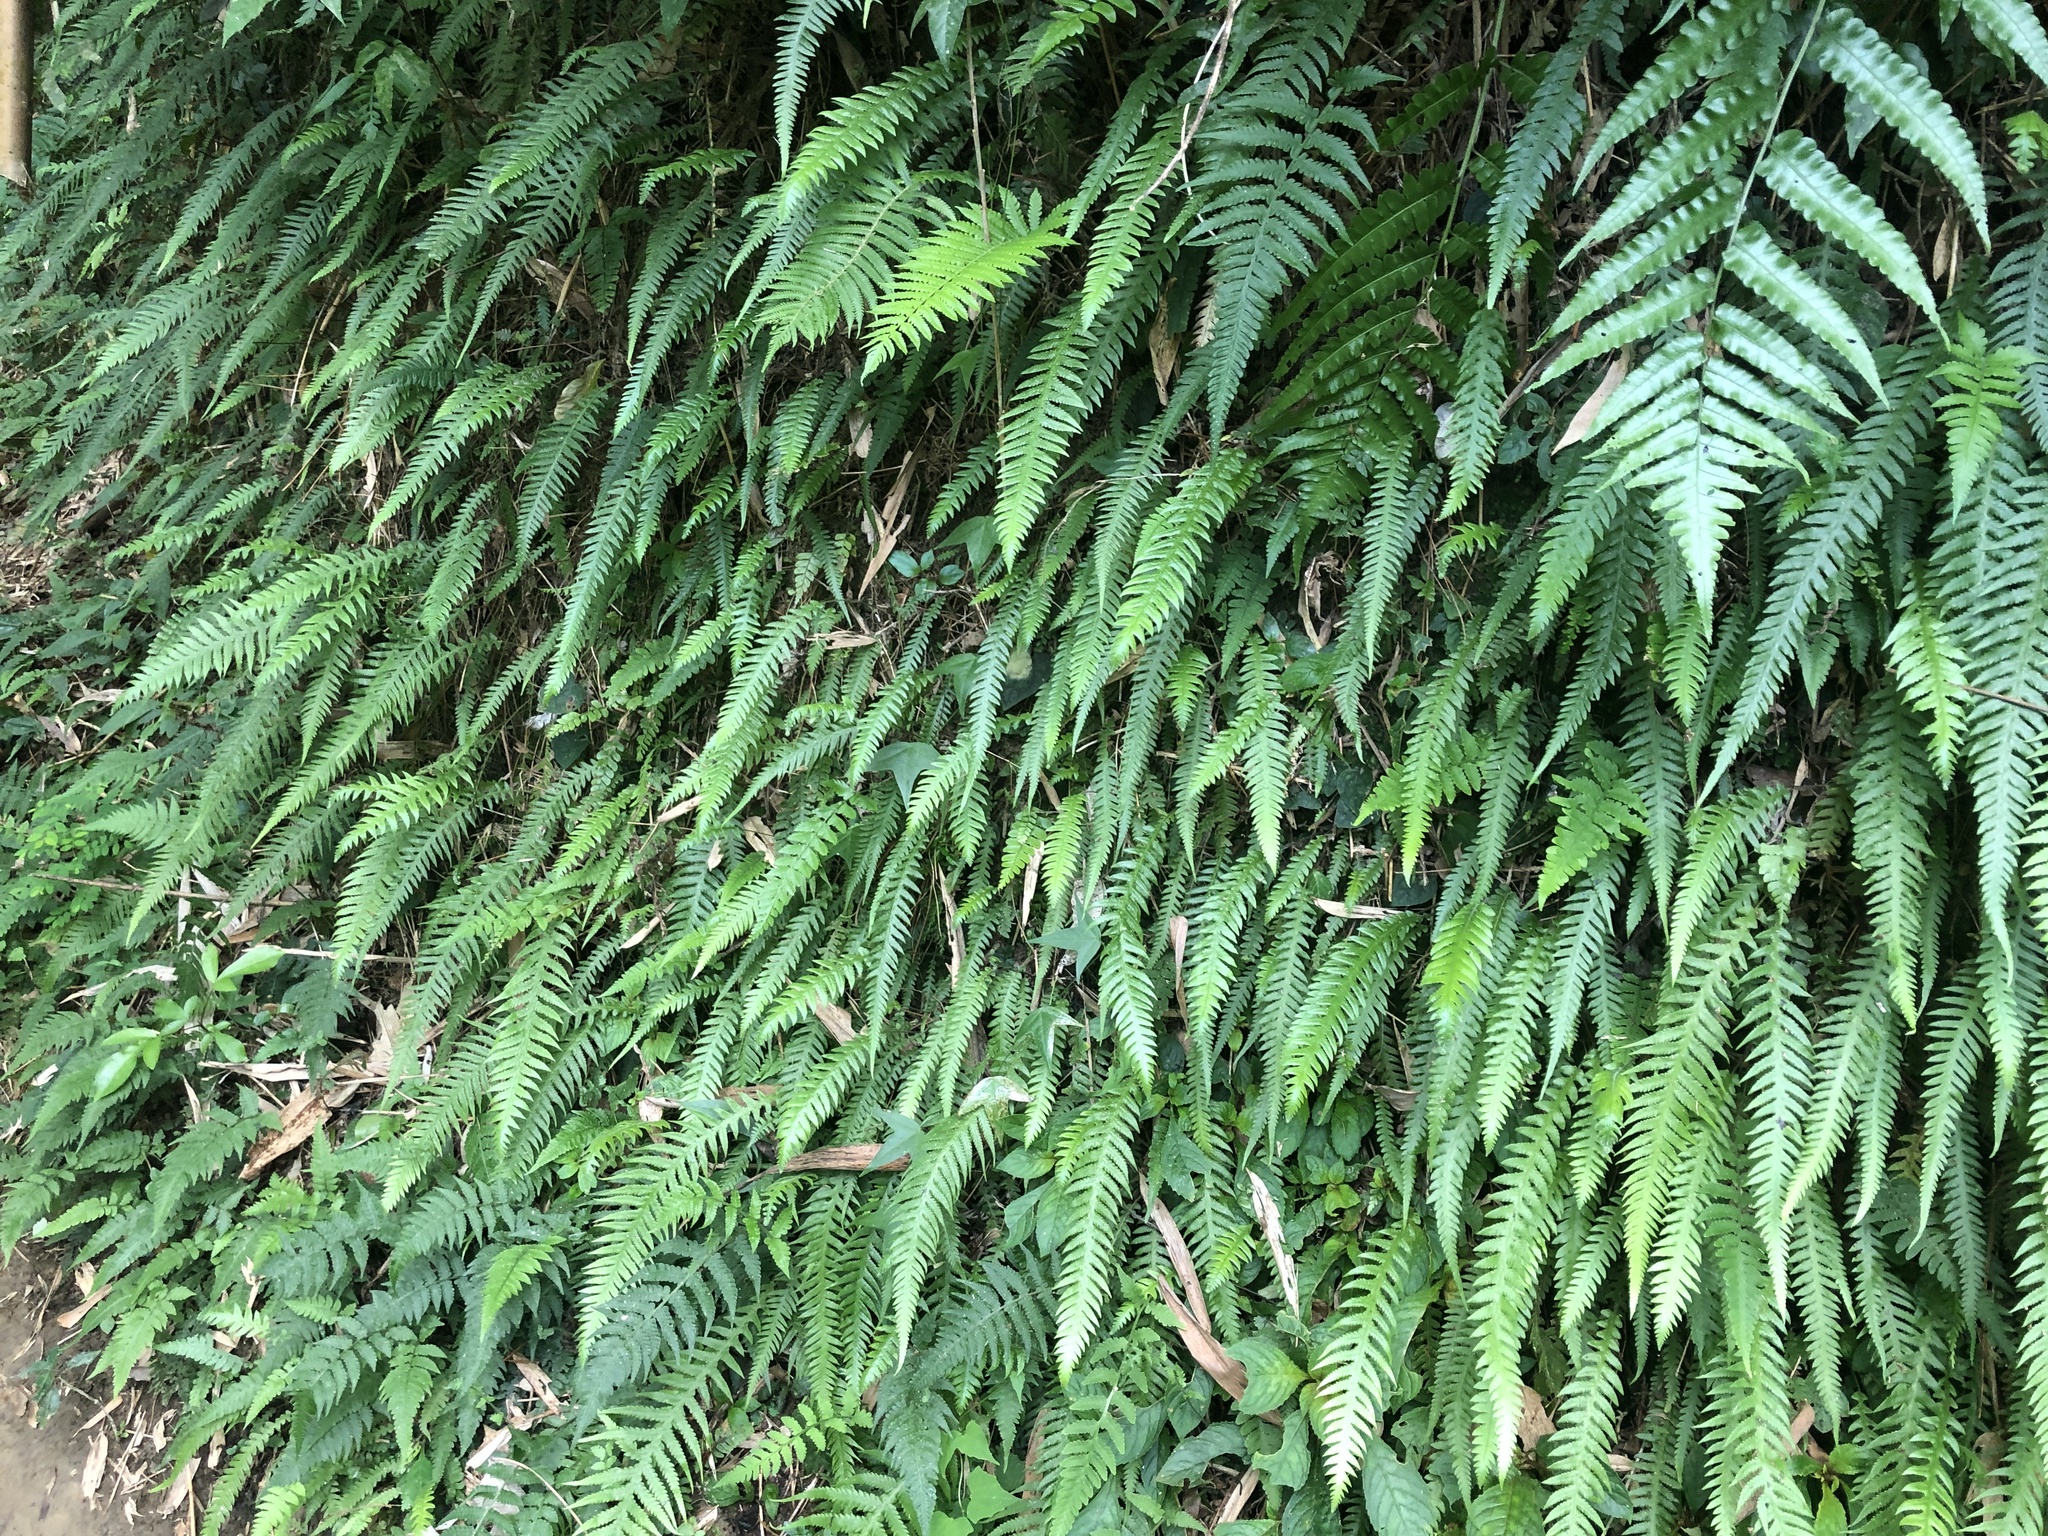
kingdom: Plantae
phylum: Tracheophyta
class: Polypodiopsida
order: Polypodiales
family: Thelypteridaceae
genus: Phegopteris
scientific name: Phegopteris decursive-pinnata
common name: Japanese beech fern
